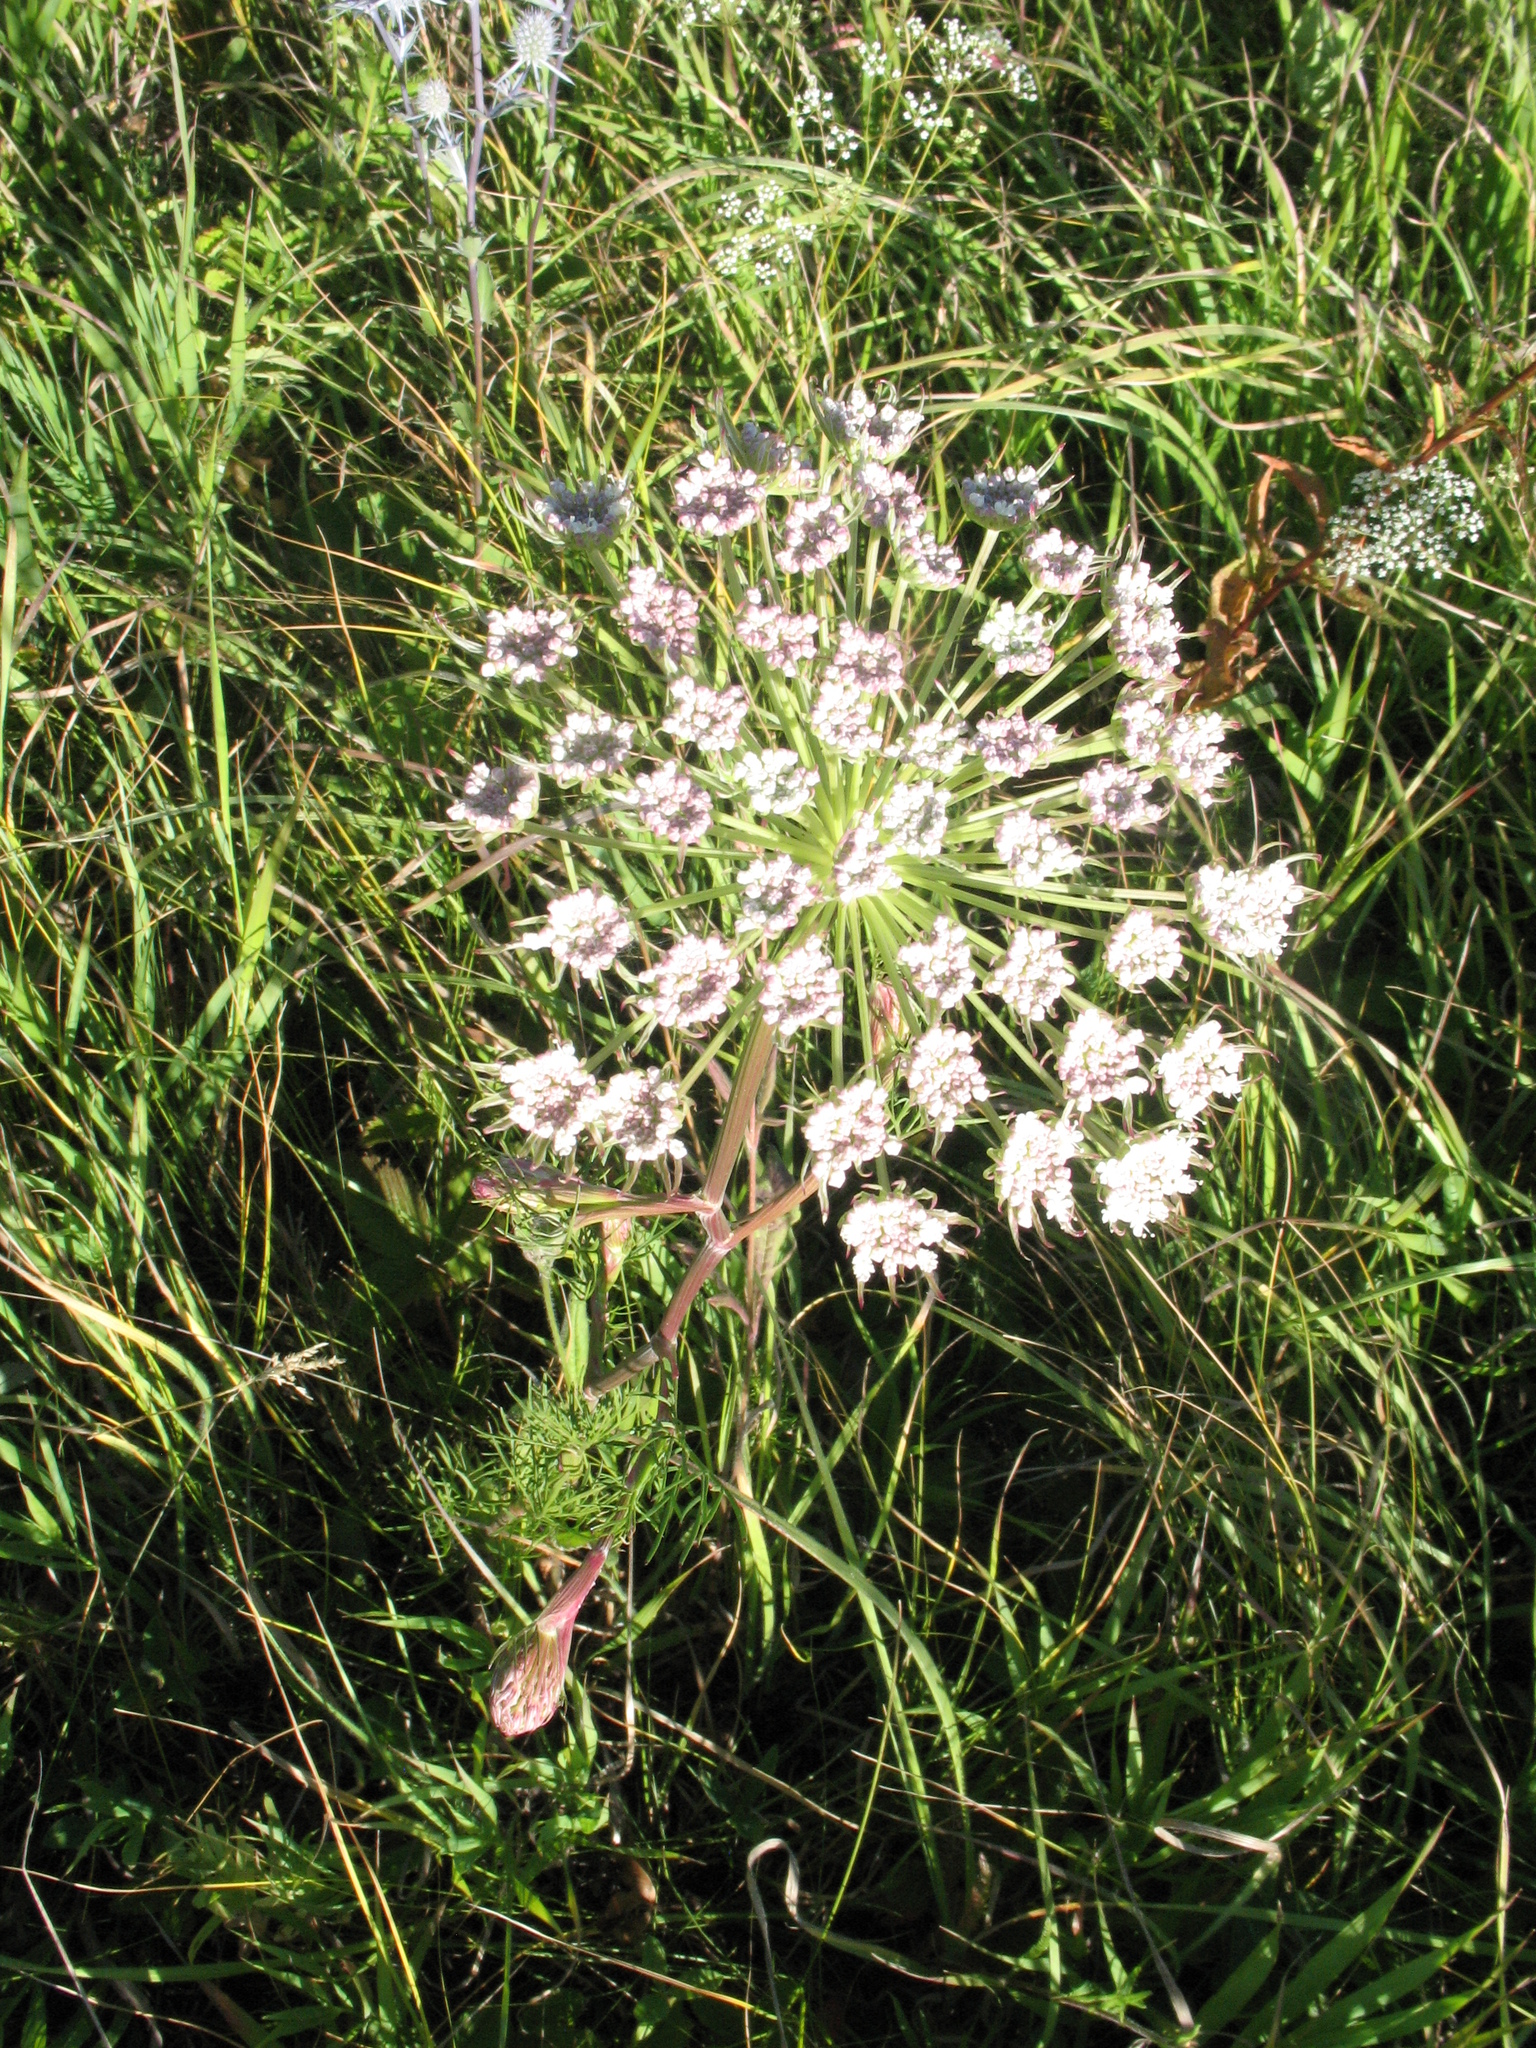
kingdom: Plantae
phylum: Tracheophyta
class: Magnoliopsida
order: Apiales
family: Apiaceae
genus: Seseli
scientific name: Seseli annuum
